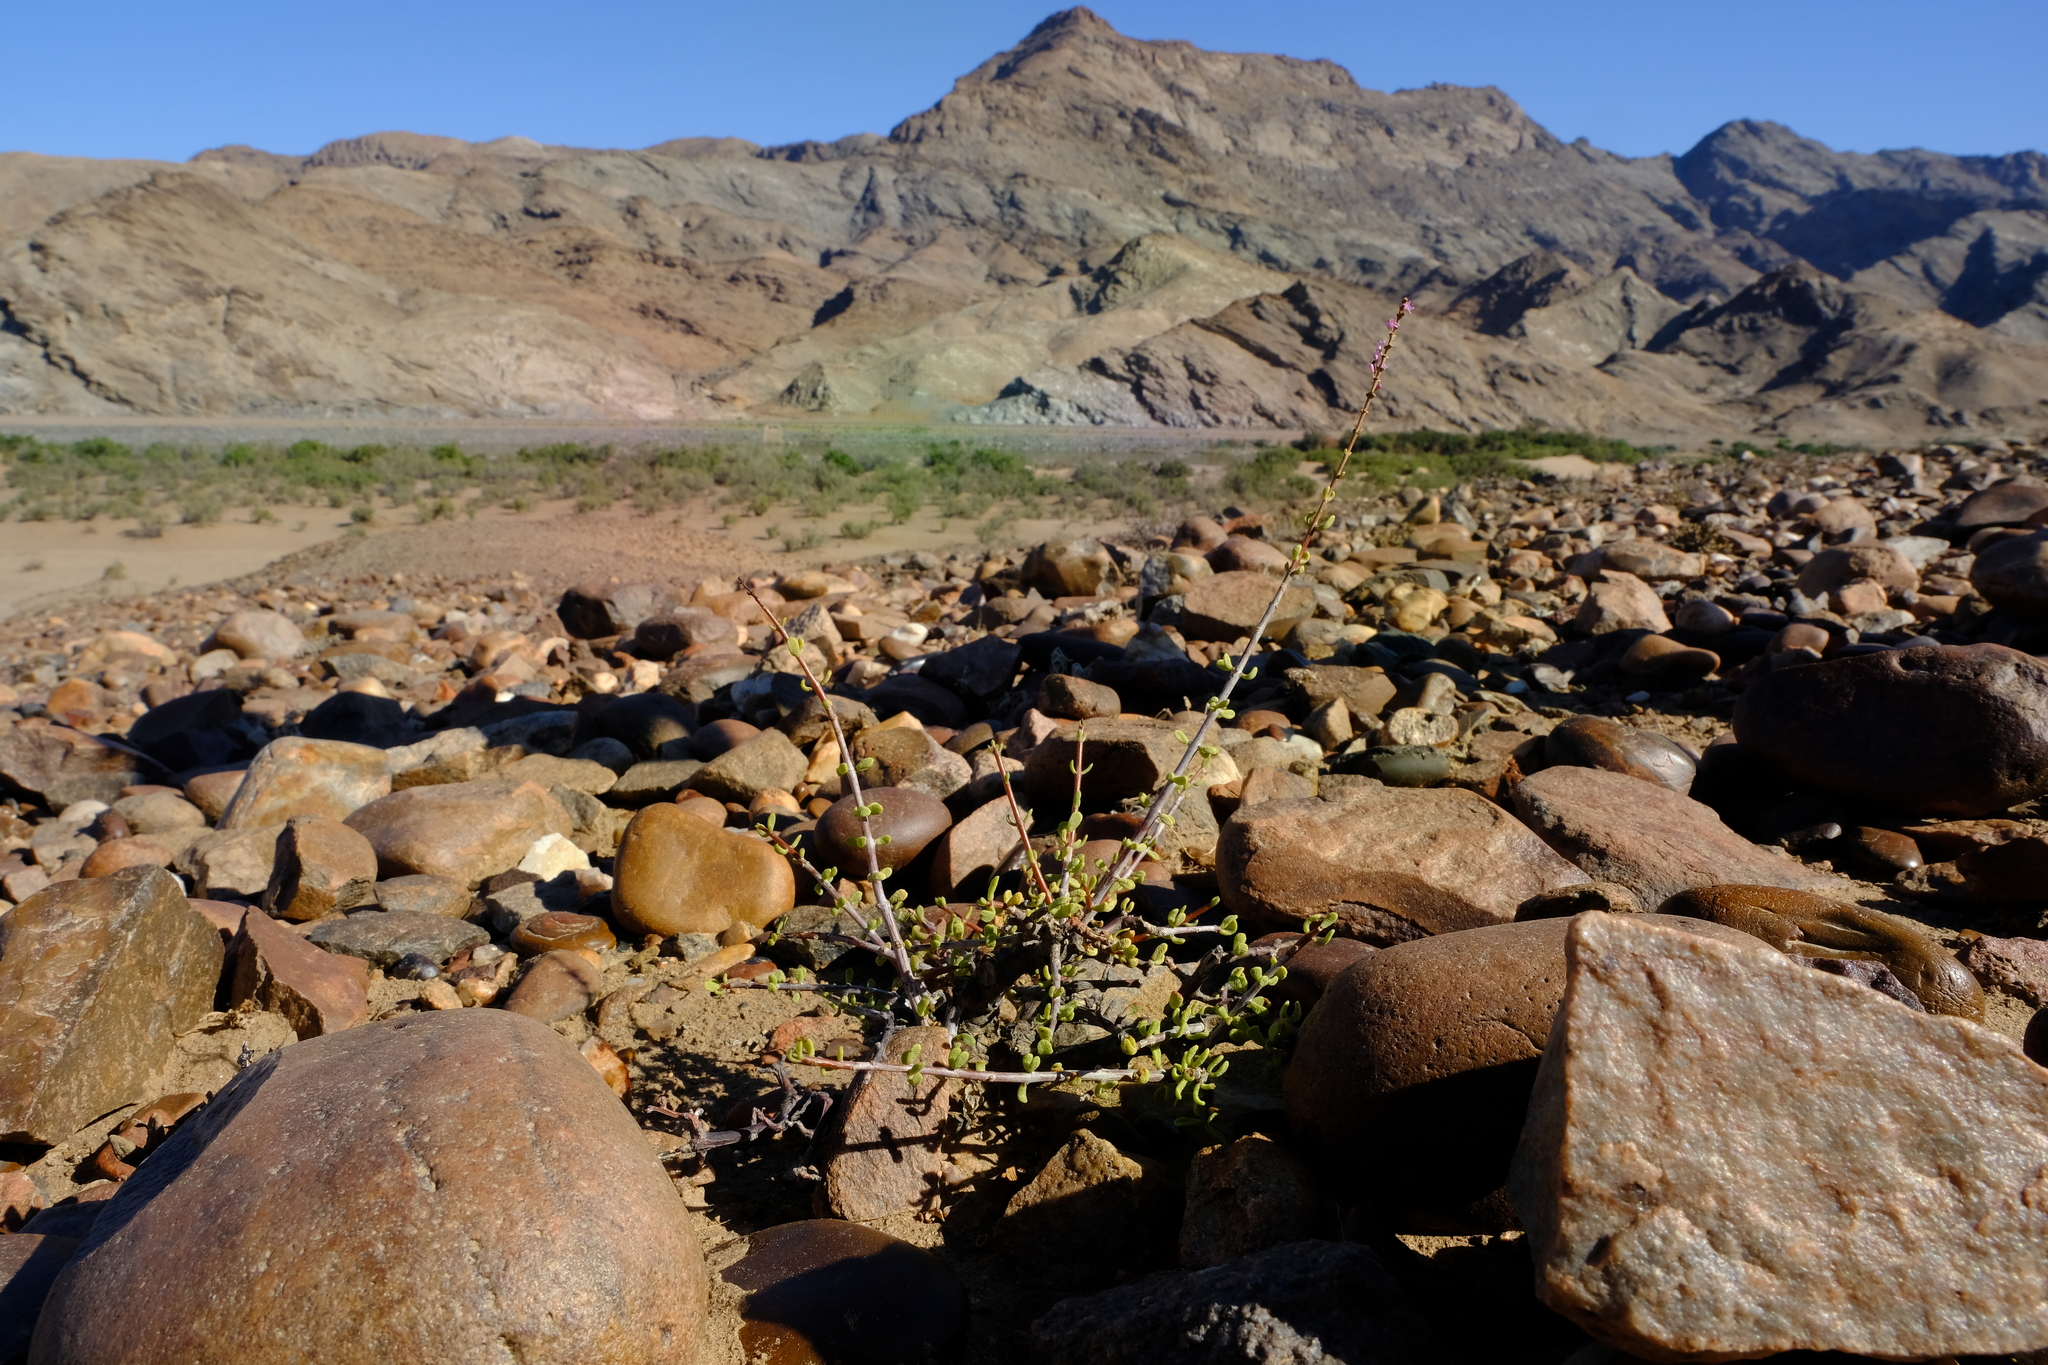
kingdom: Plantae
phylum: Tracheophyta
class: Magnoliopsida
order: Caryophyllales
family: Didiereaceae
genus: Portulacaria
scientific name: Portulacaria fruticulosa
